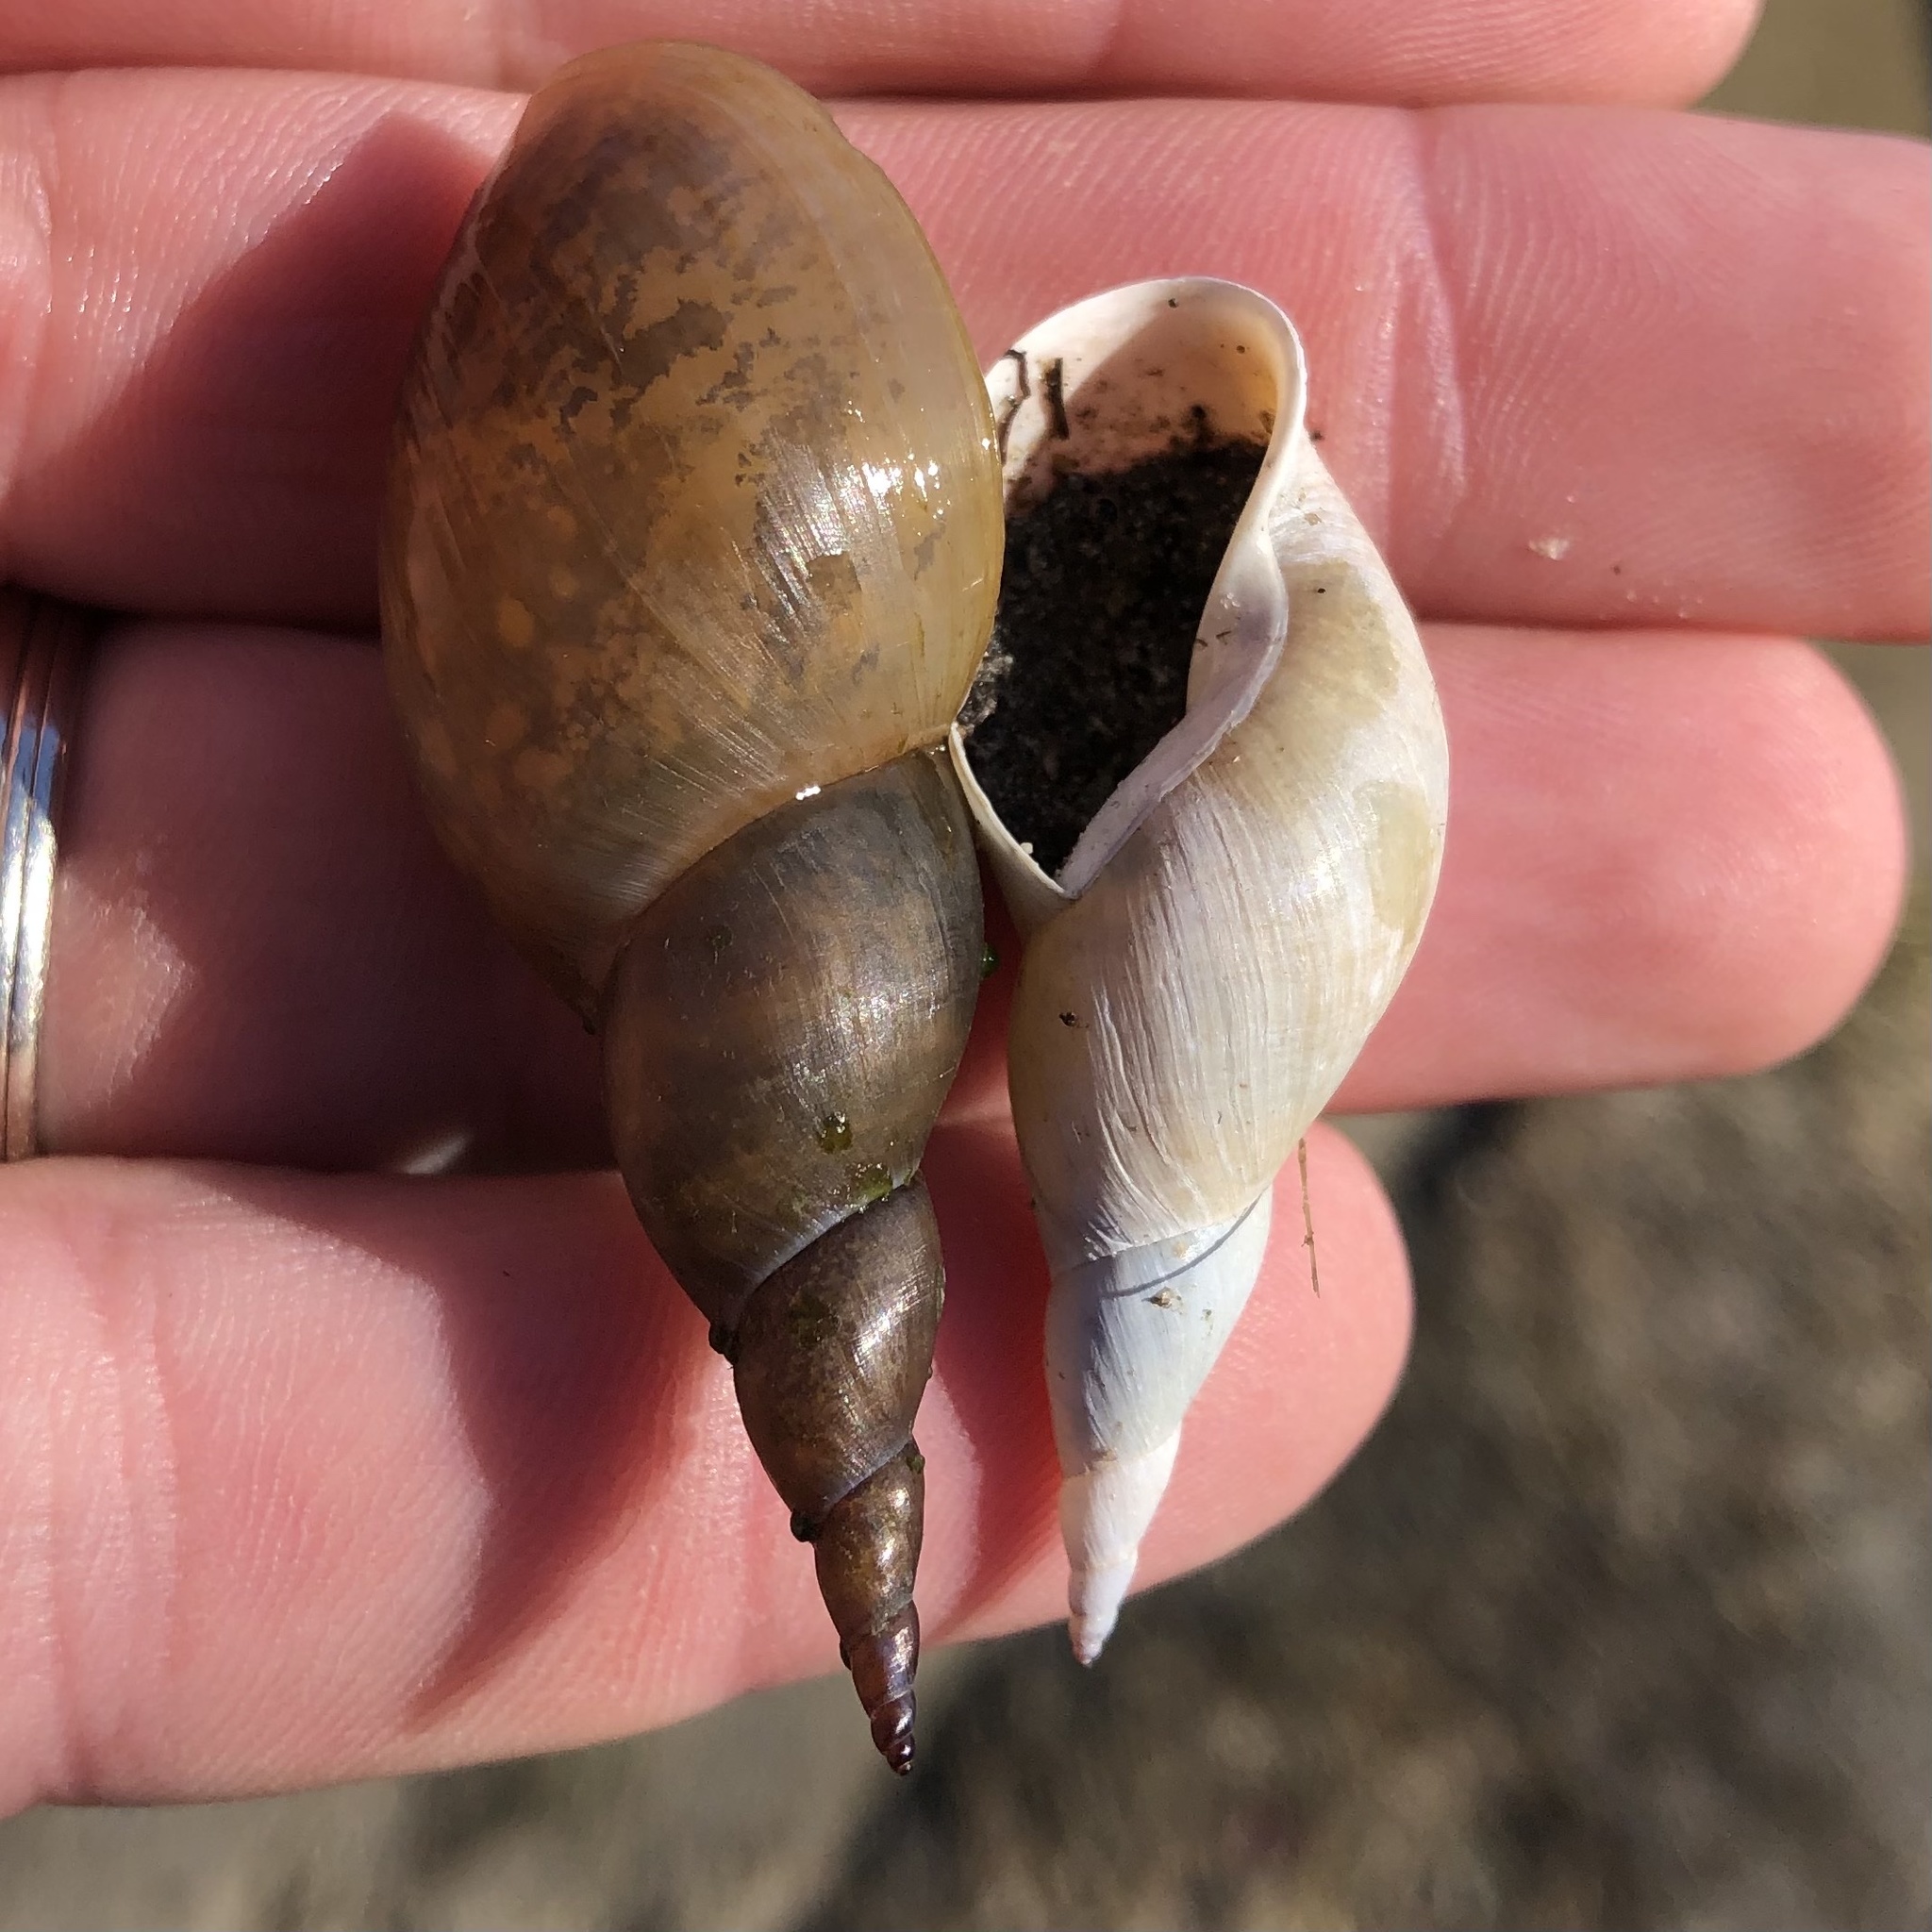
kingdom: Animalia
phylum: Mollusca
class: Gastropoda
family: Lymnaeidae
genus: Lymnaea
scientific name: Lymnaea stagnalis
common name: Great pond snail
